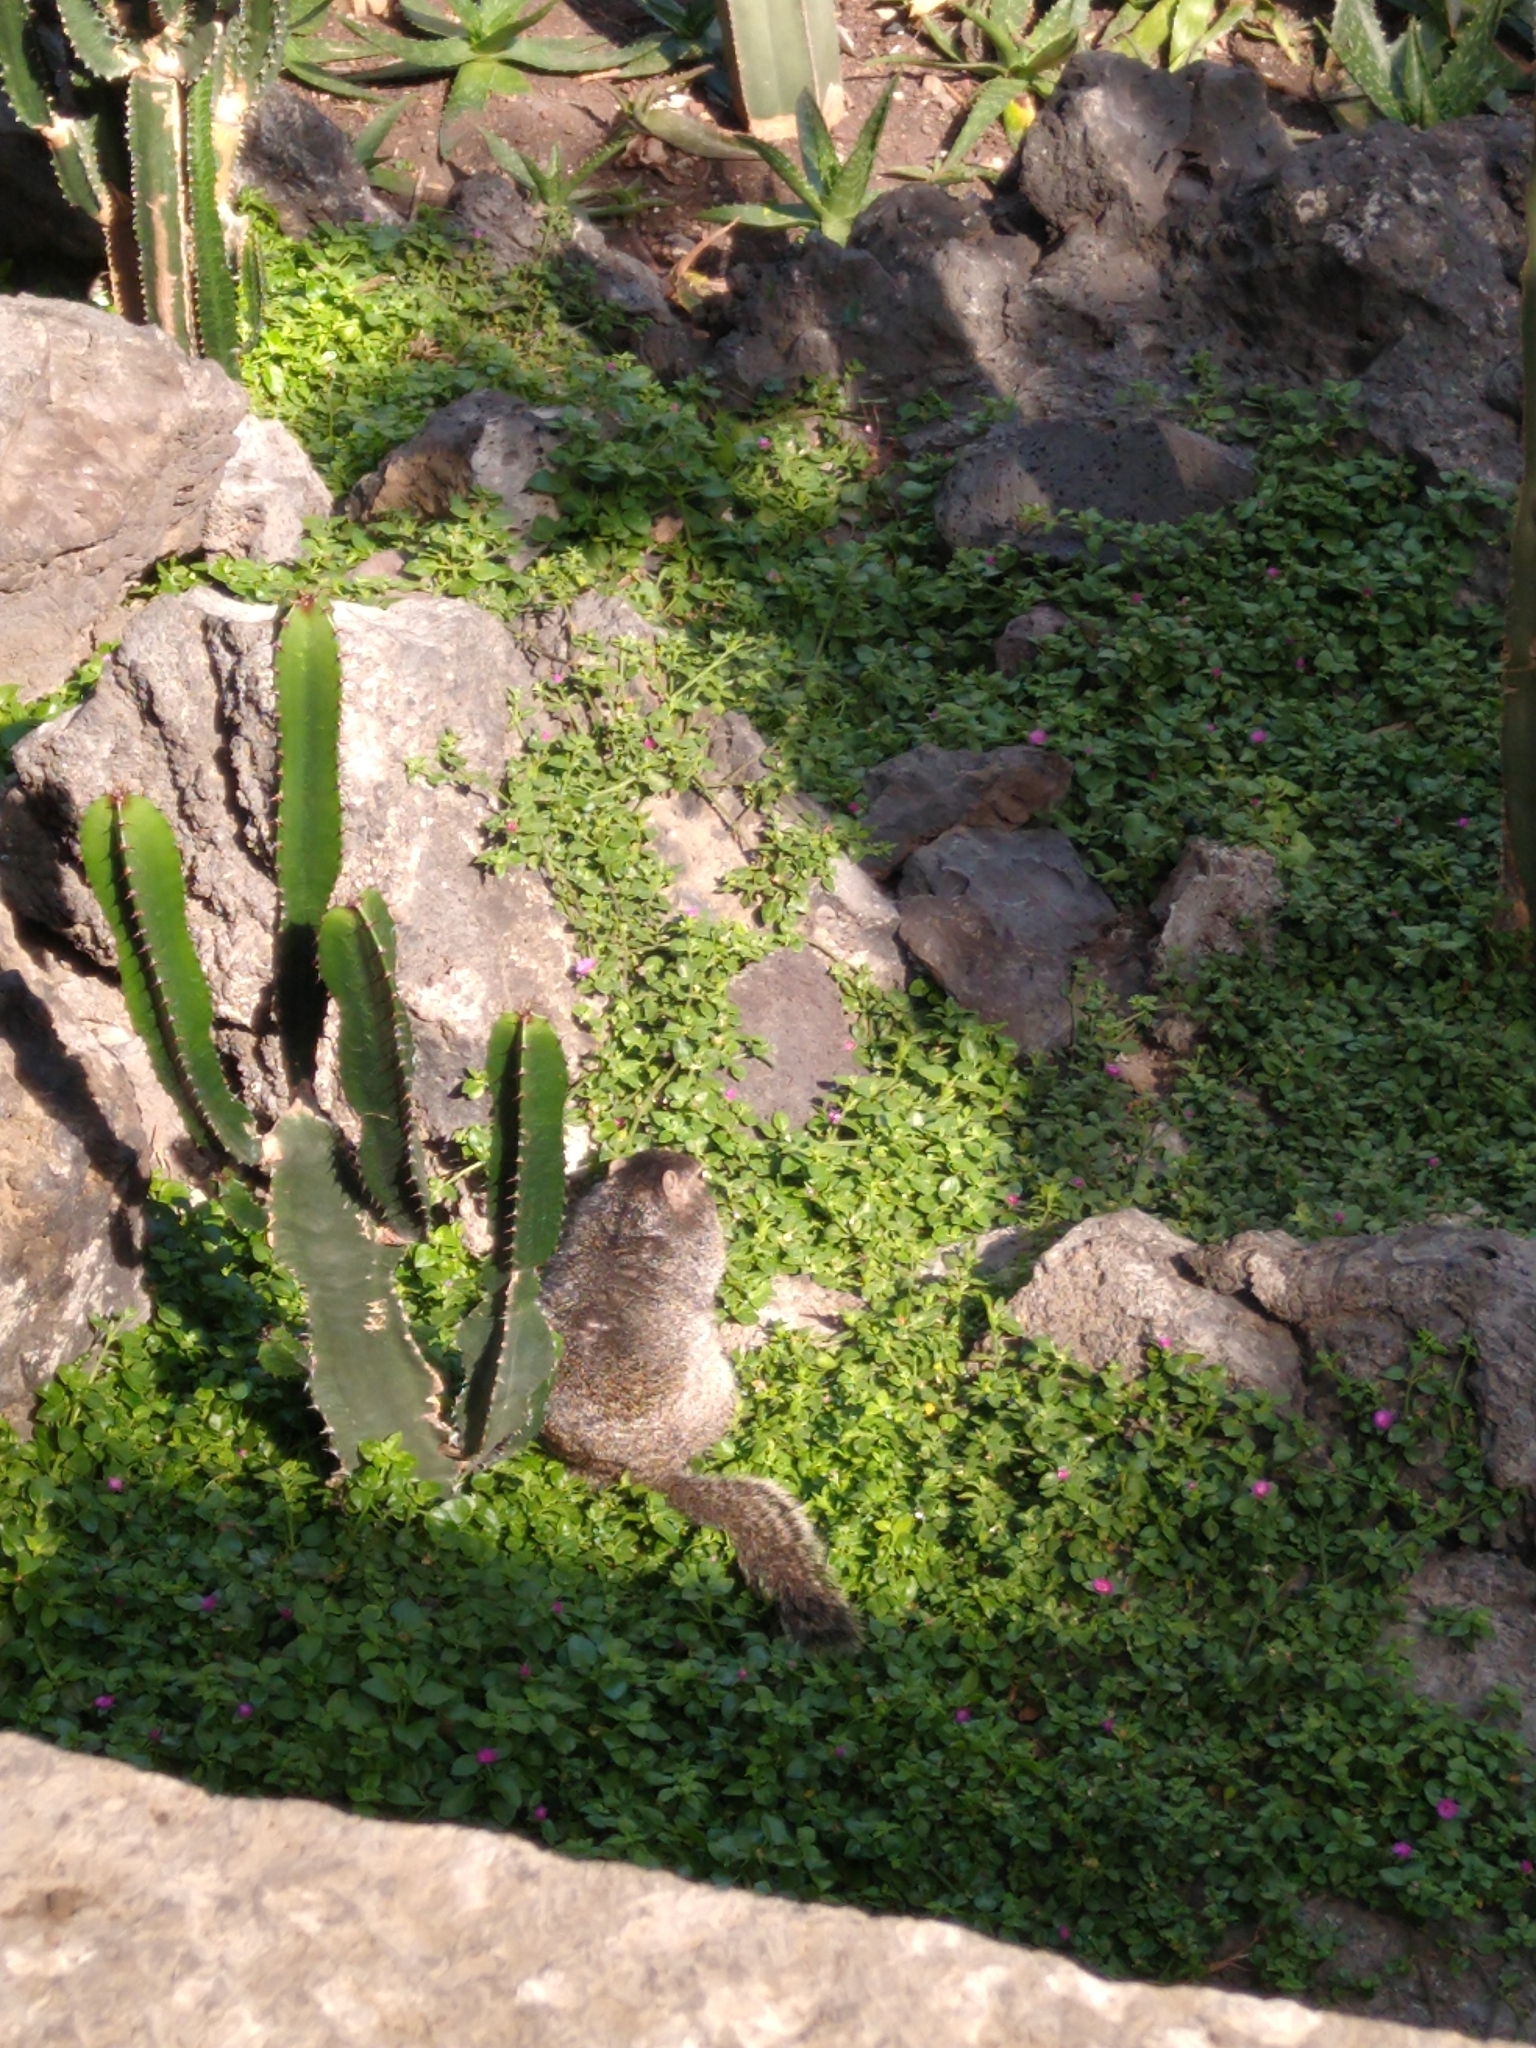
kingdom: Animalia
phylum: Chordata
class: Mammalia
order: Rodentia
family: Sciuridae
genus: Otospermophilus
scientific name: Otospermophilus variegatus
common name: Rock squirrel
